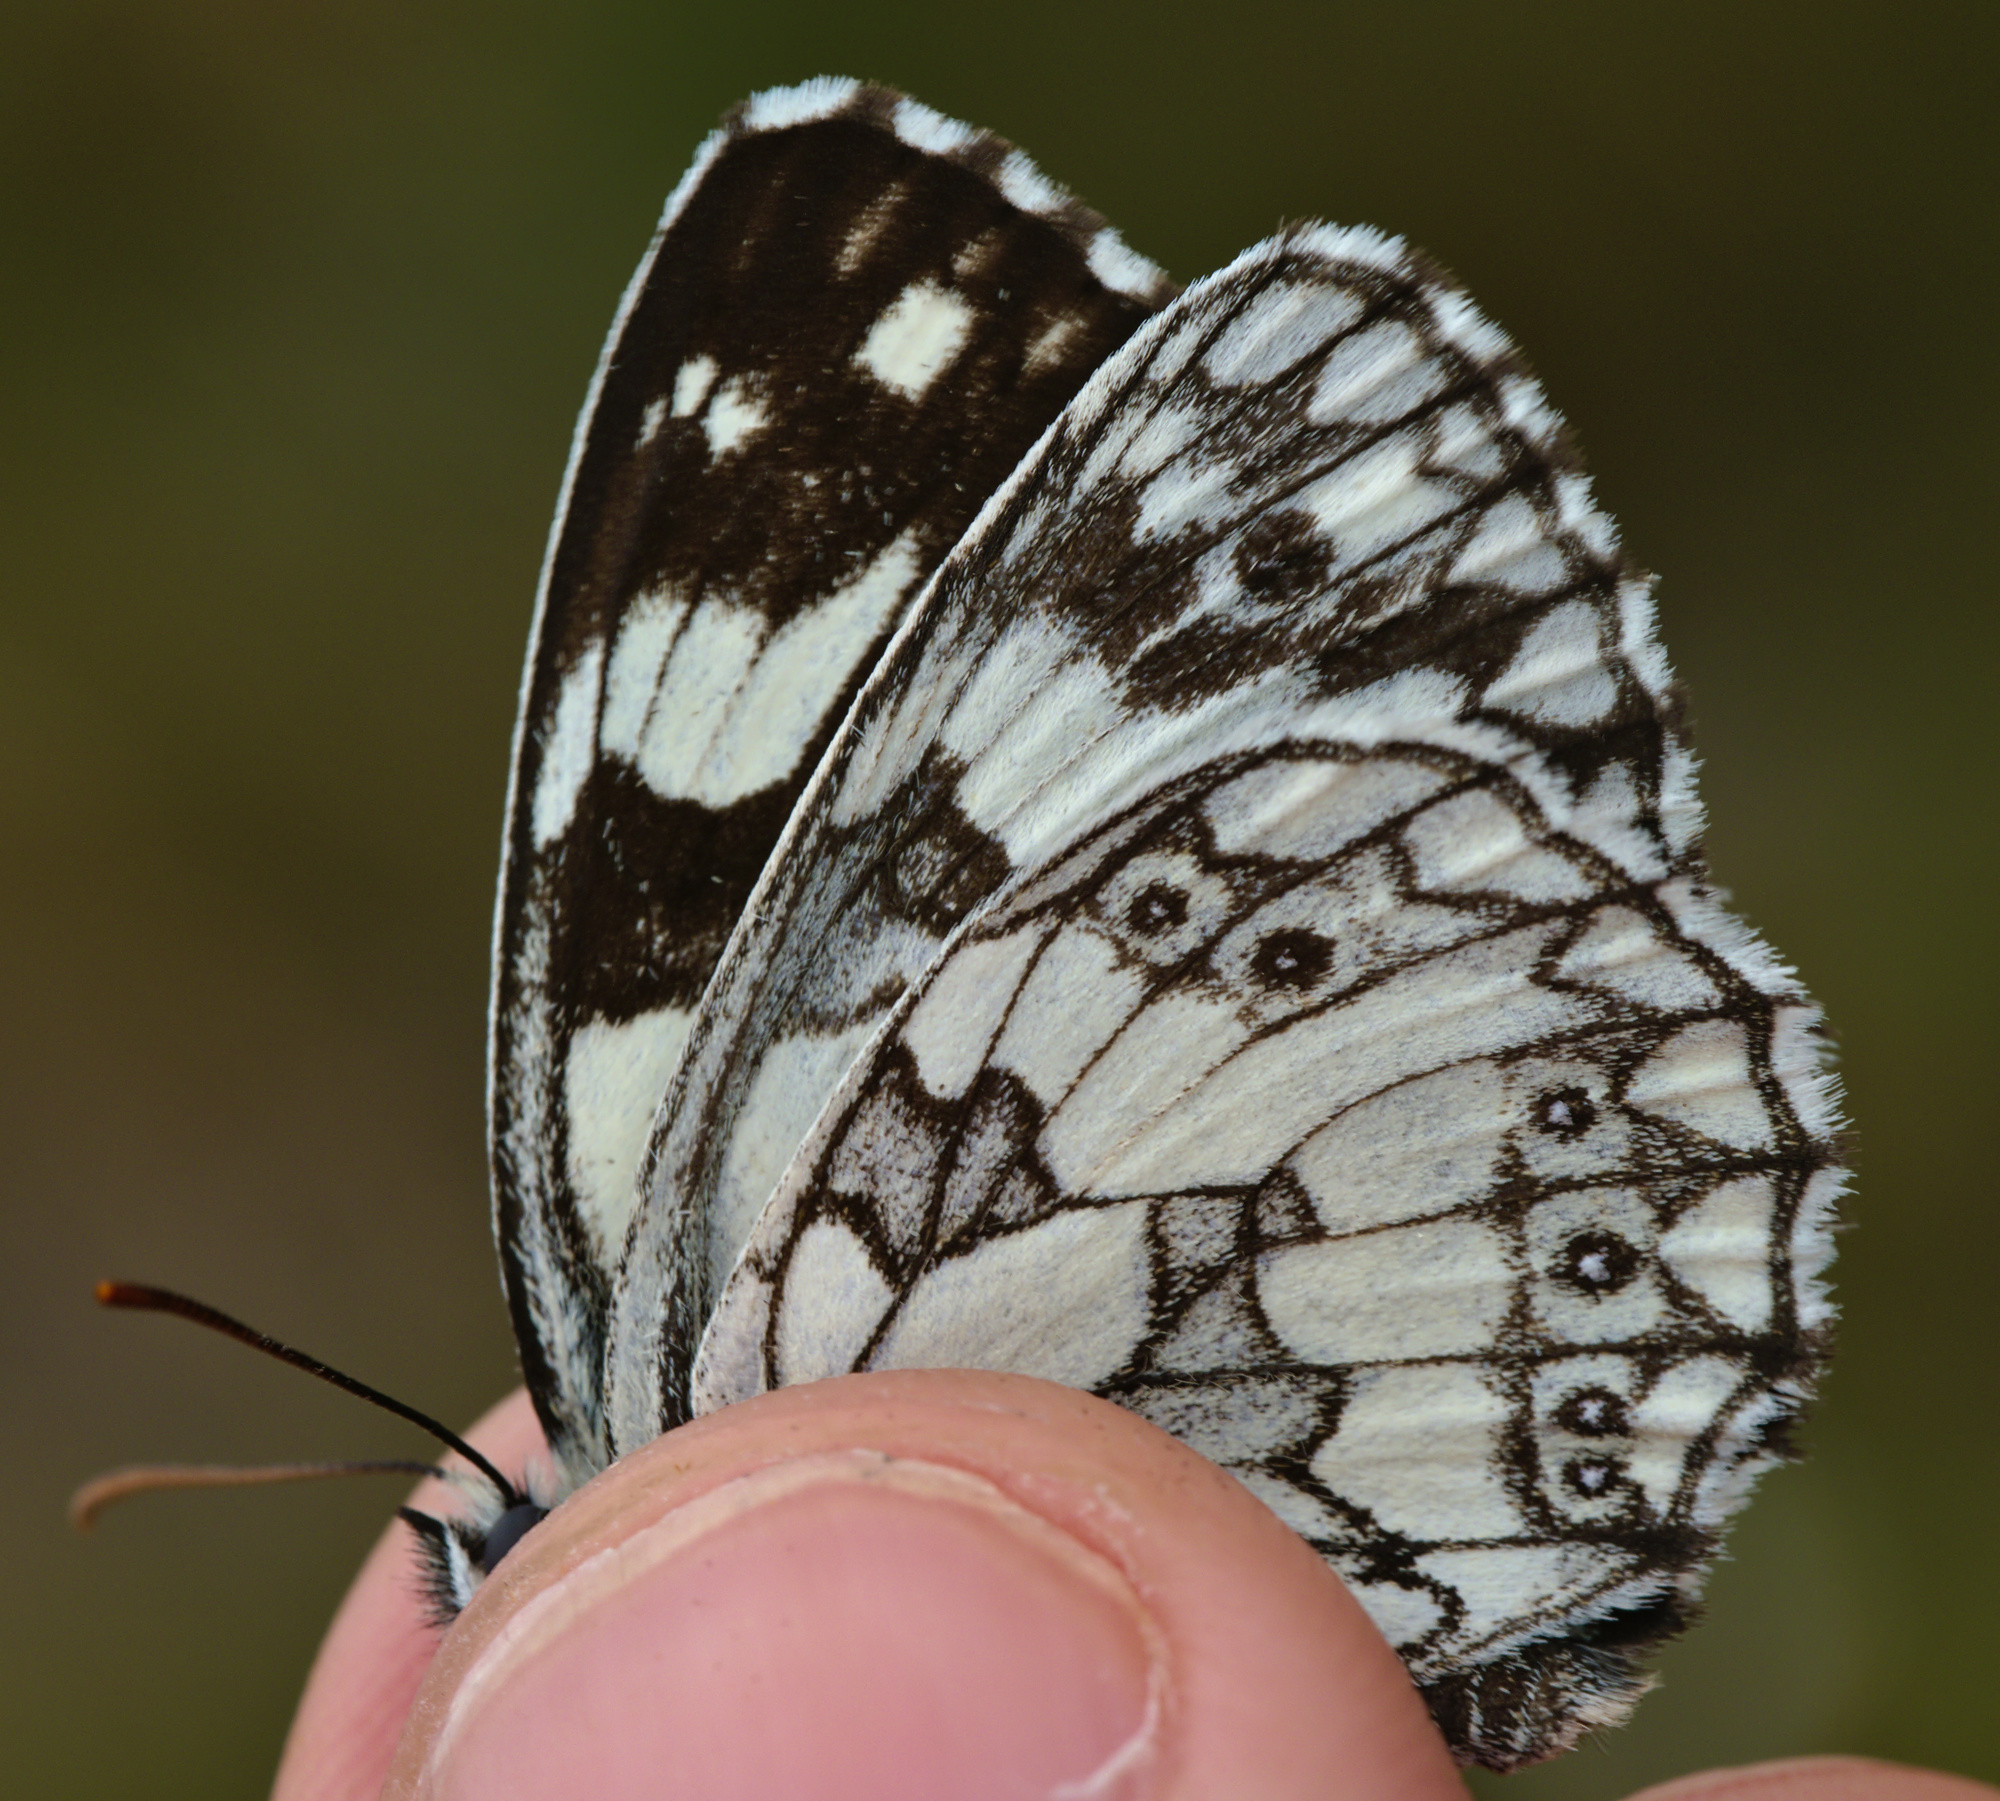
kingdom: Animalia
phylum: Arthropoda
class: Insecta
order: Lepidoptera
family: Nymphalidae
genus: Melanargia
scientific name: Melanargia galathea
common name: Marbled white
